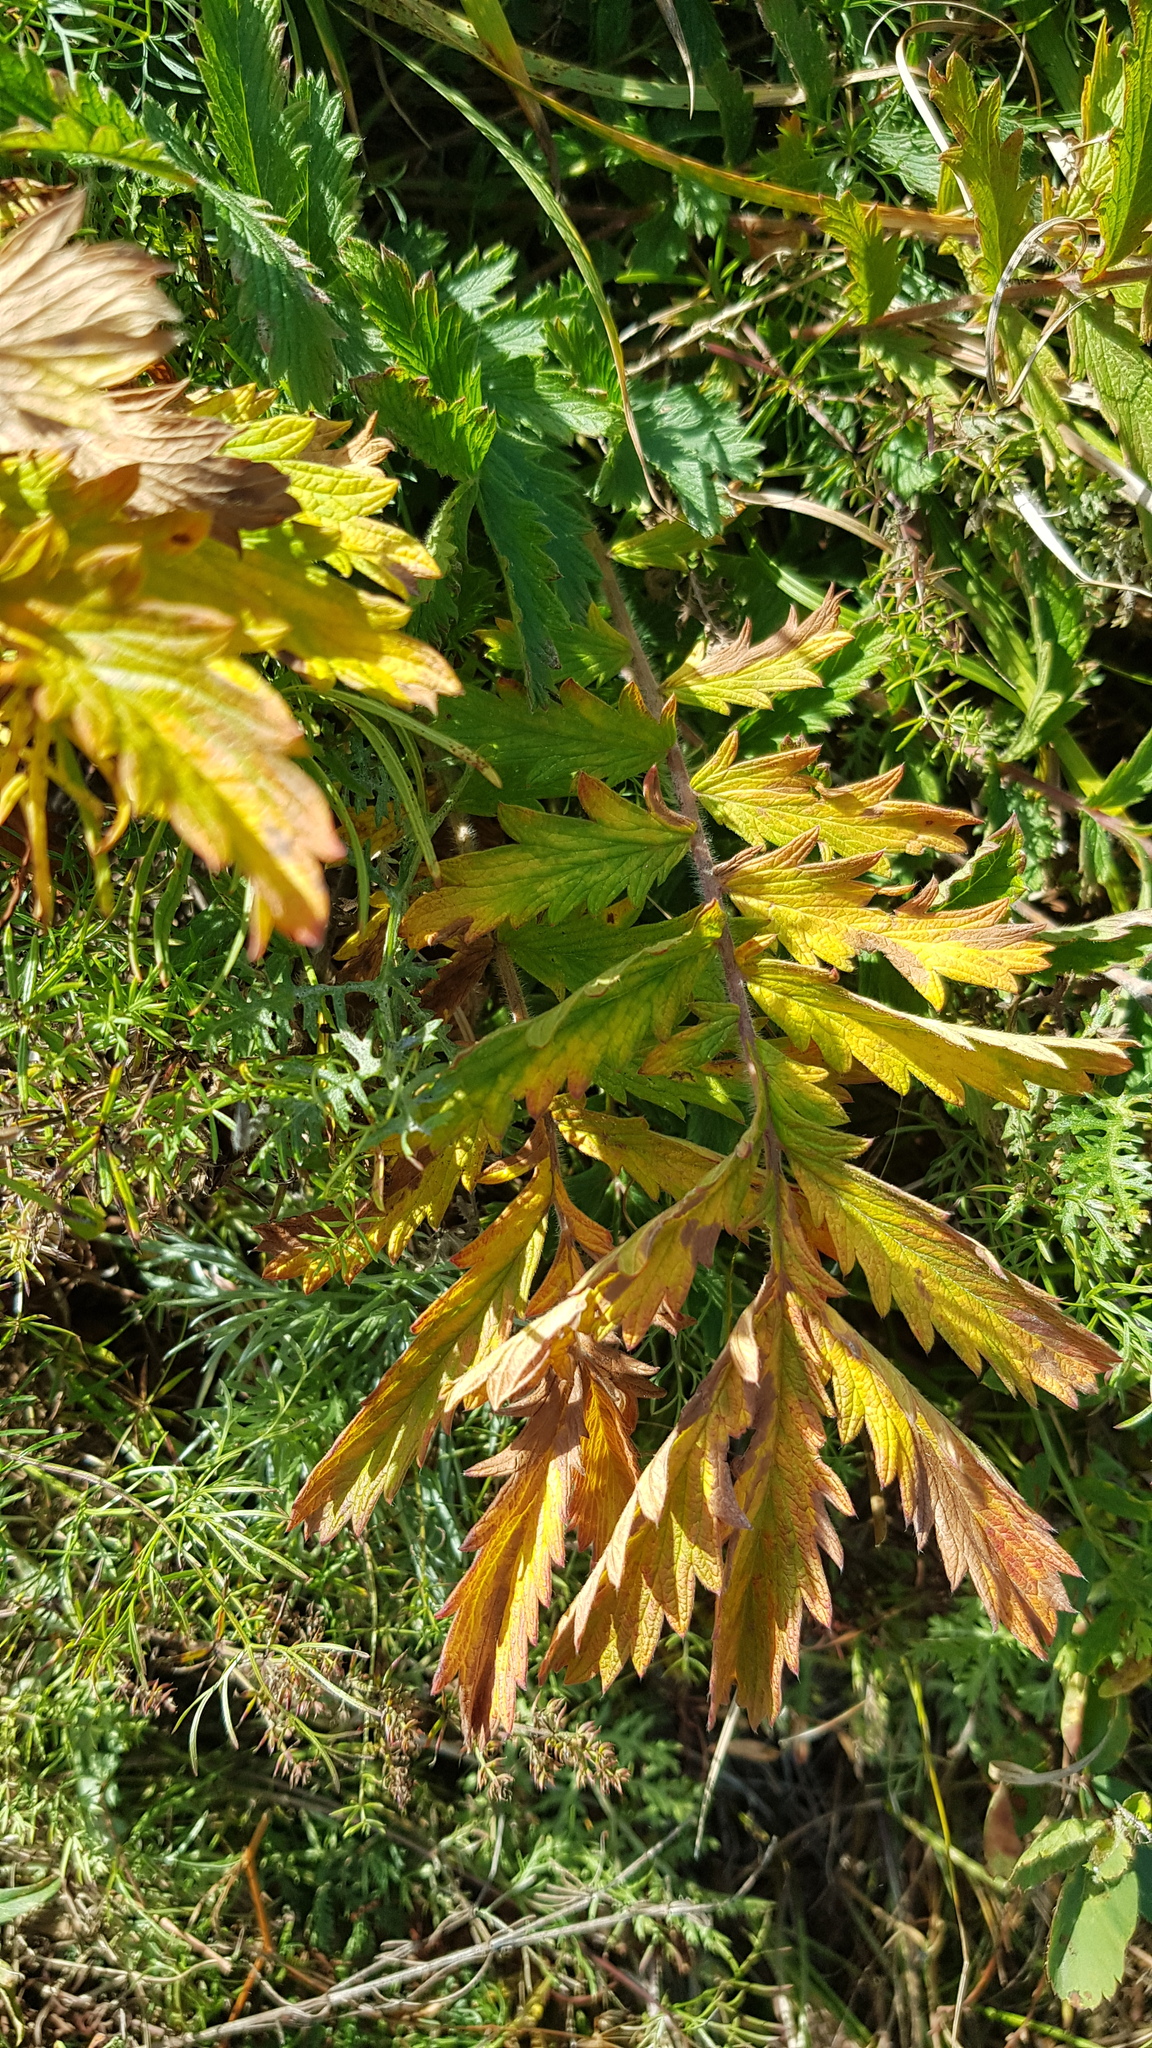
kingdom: Plantae
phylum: Tracheophyta
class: Magnoliopsida
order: Rosales
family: Rosaceae
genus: Potentilla
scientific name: Potentilla tanacetifolia
